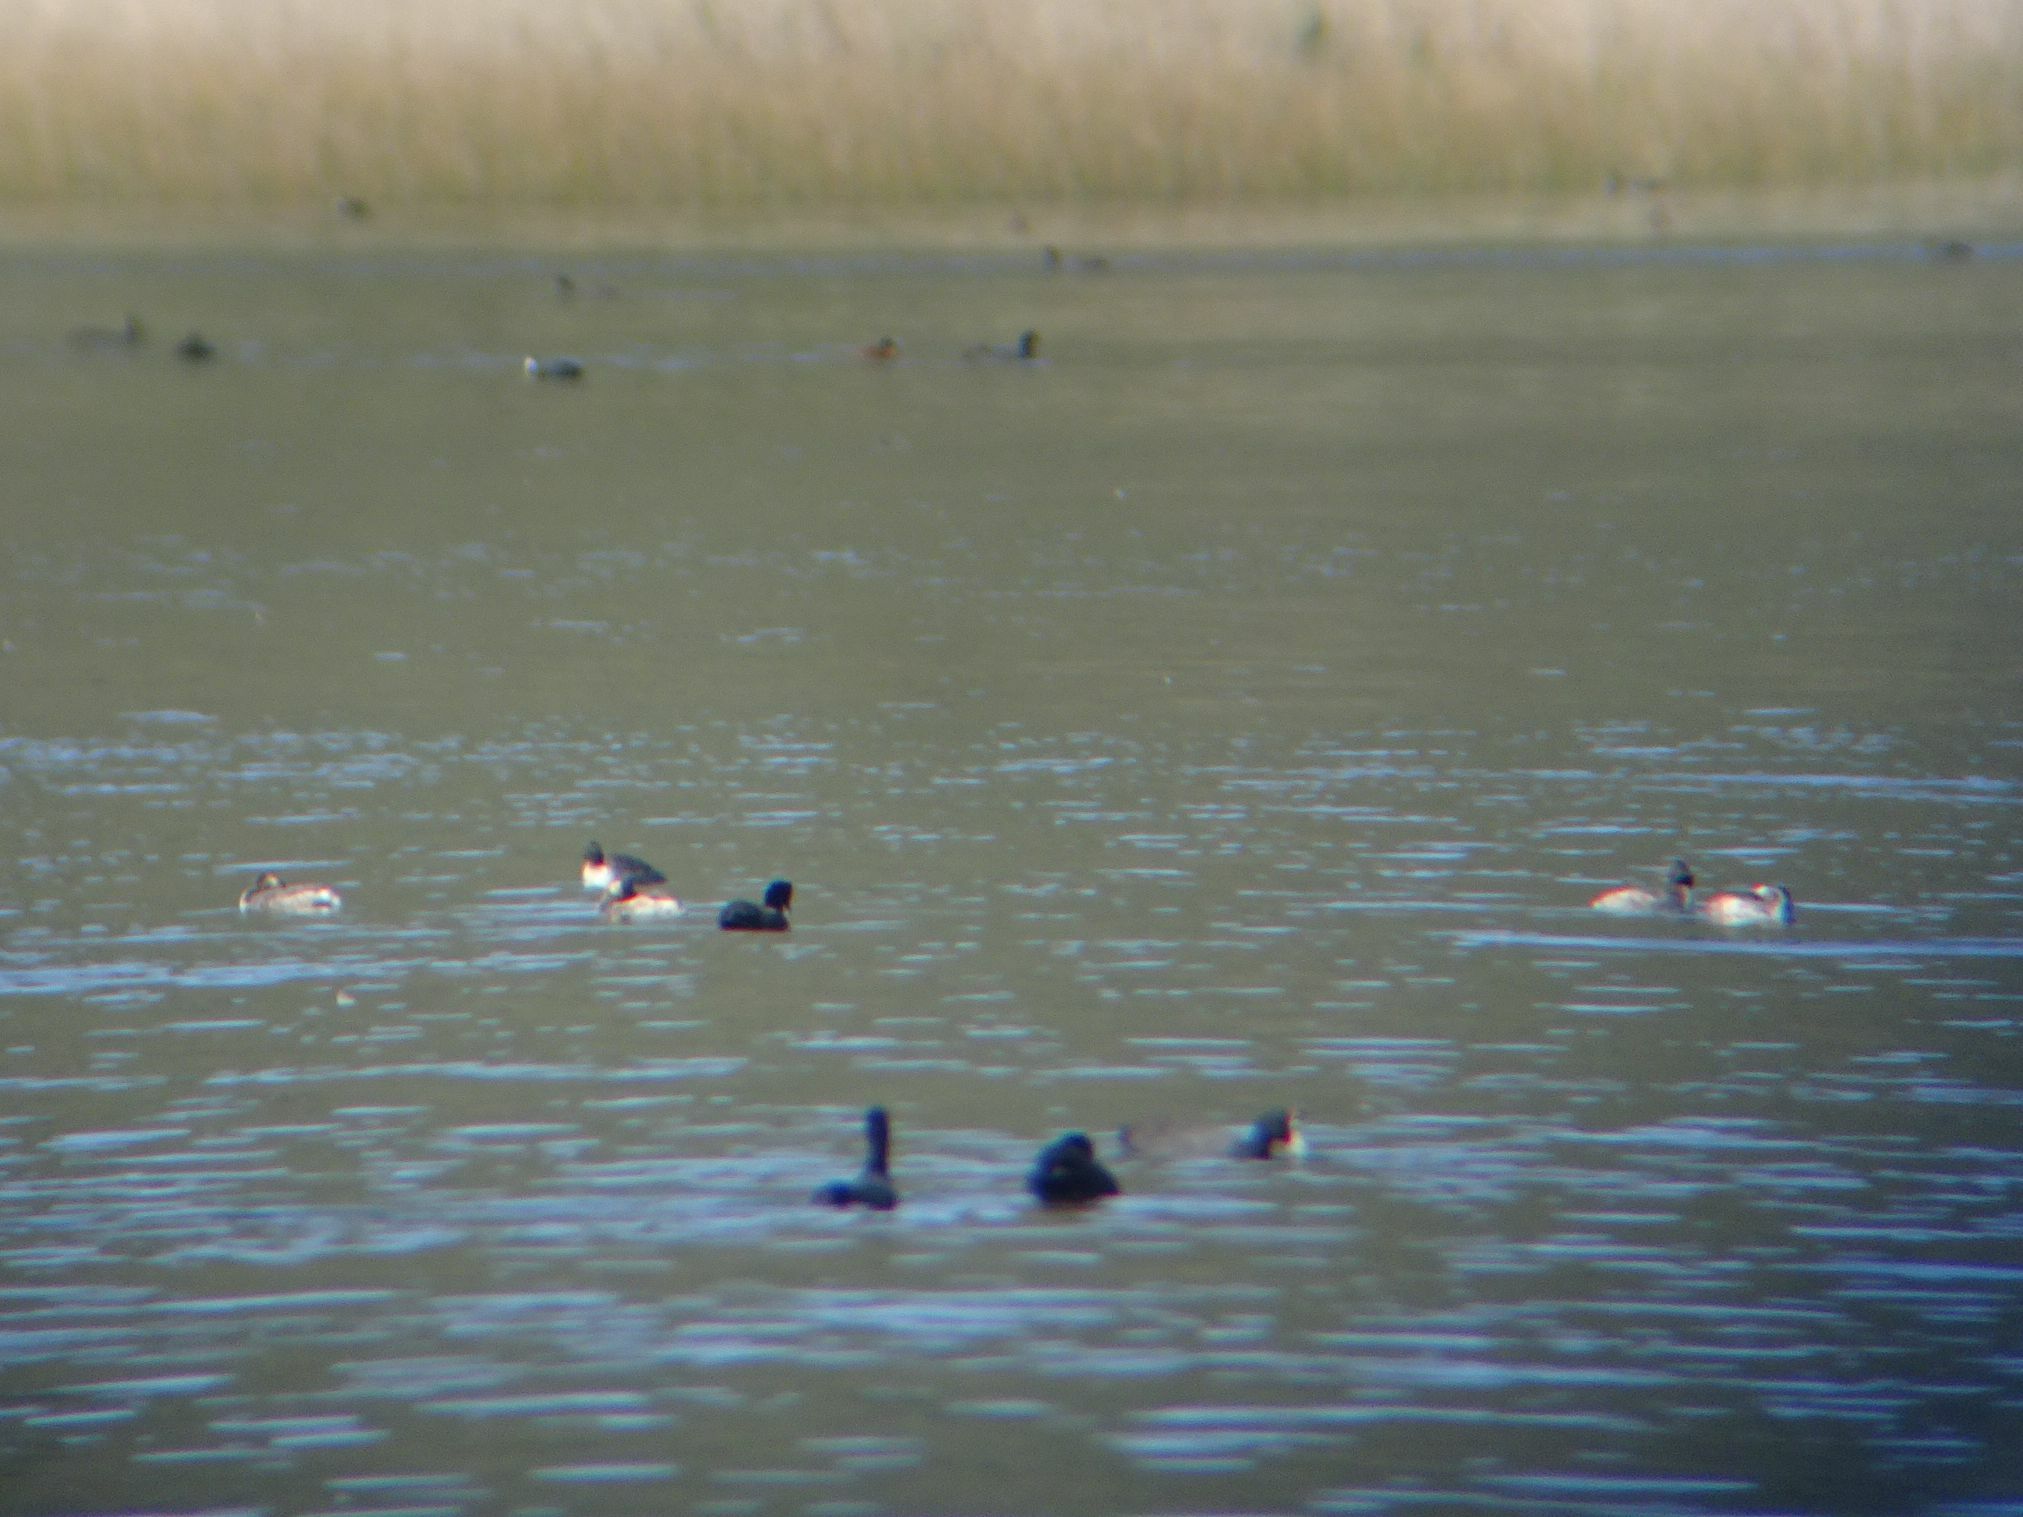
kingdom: Animalia
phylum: Chordata
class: Aves
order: Podicipediformes
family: Podicipedidae
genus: Podiceps
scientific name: Podiceps nigricollis
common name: Black-necked grebe
